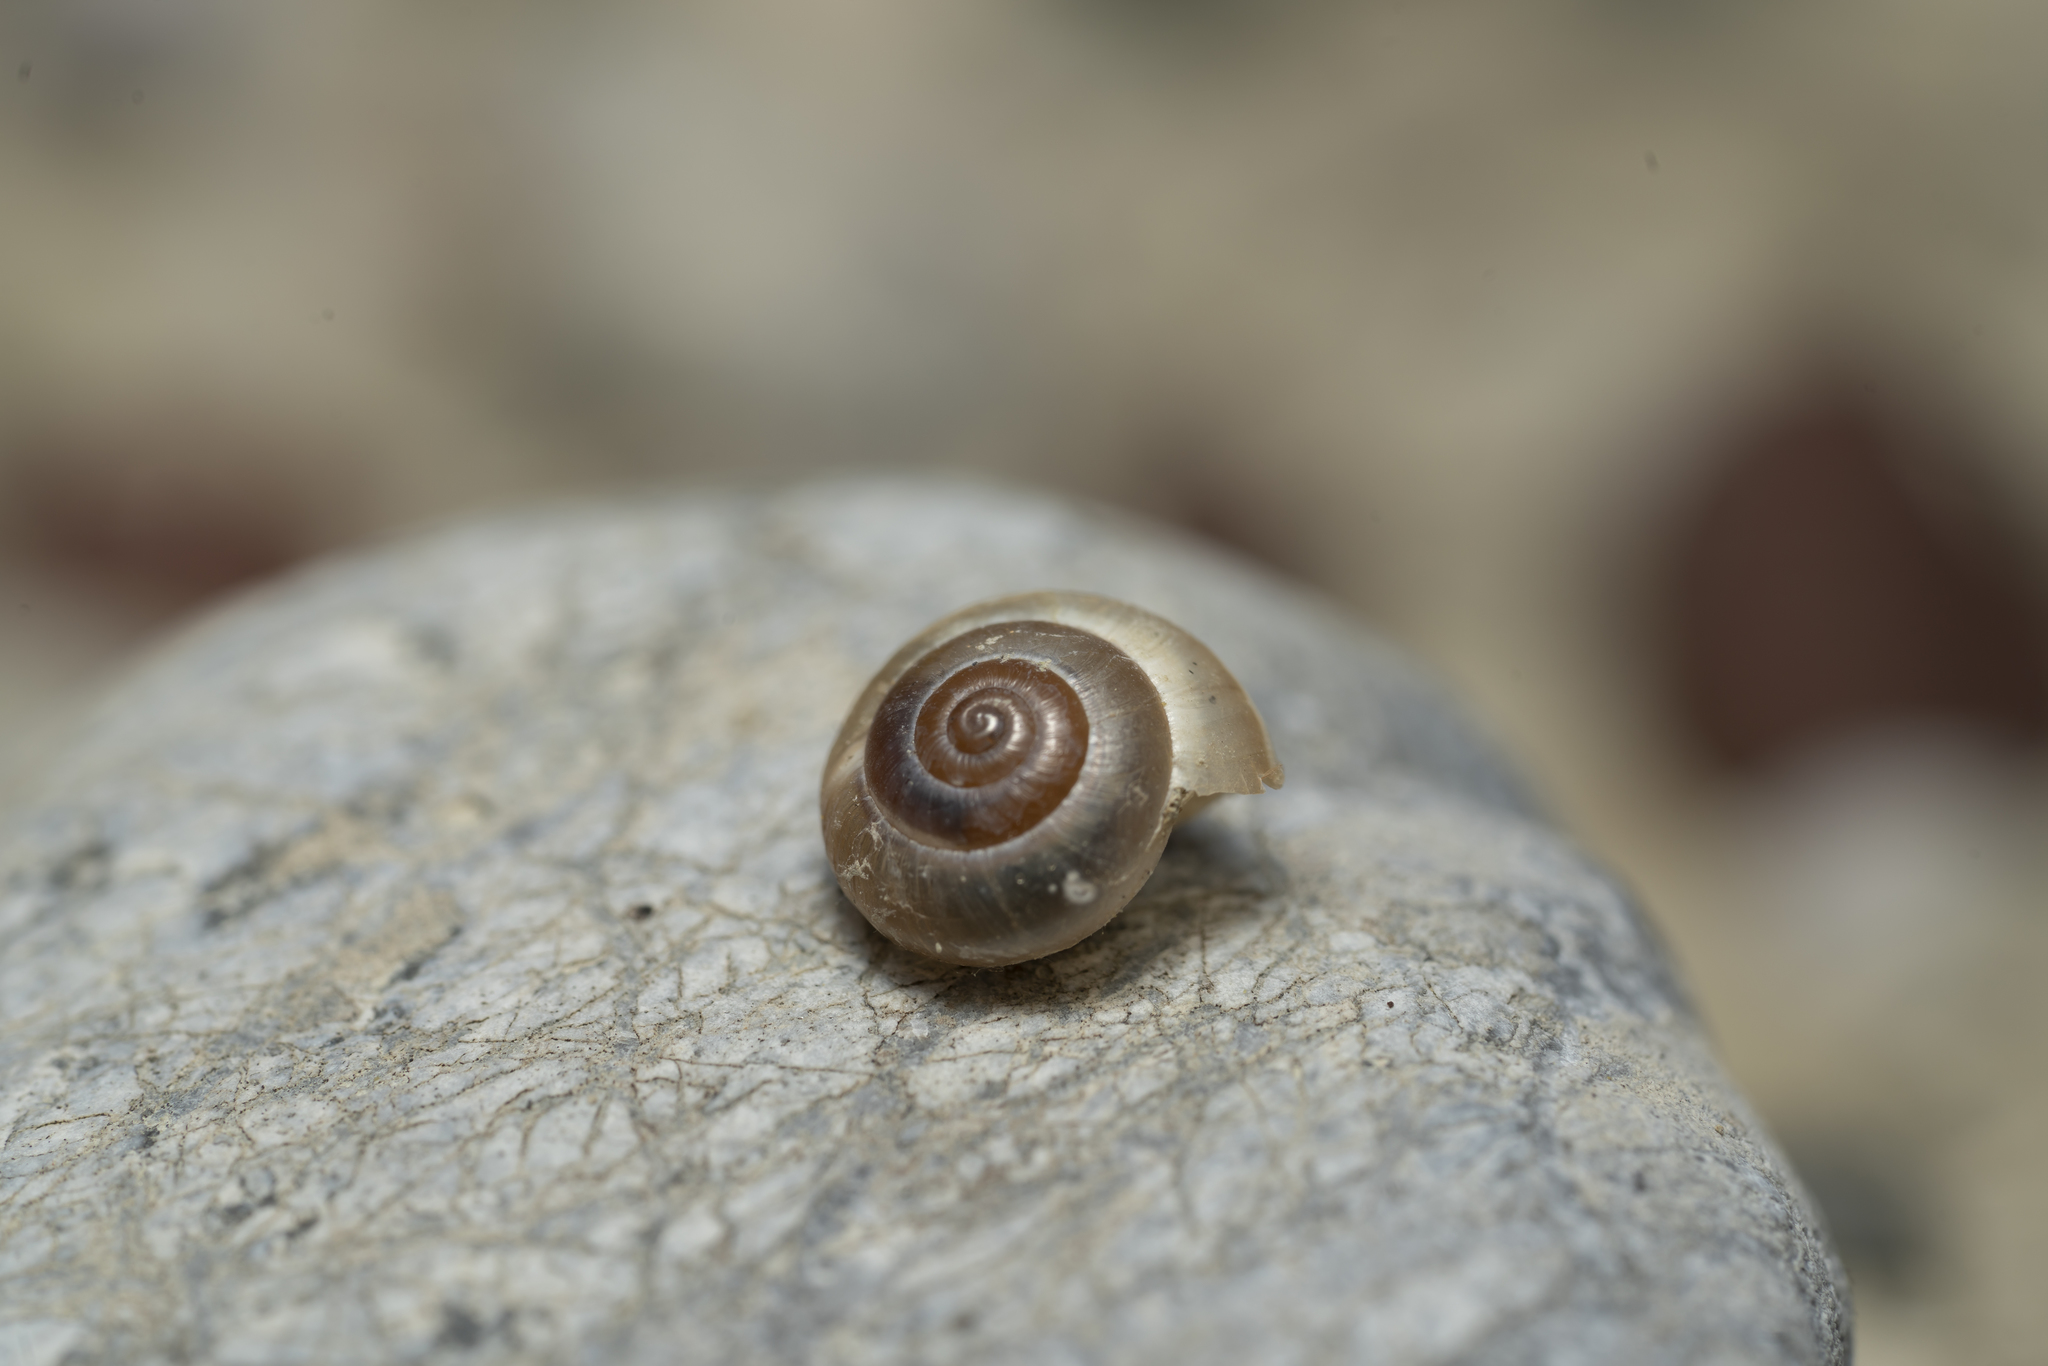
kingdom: Animalia
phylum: Mollusca
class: Gastropoda
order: Stylommatophora
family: Hygromiidae
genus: Monacha
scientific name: Monacha
